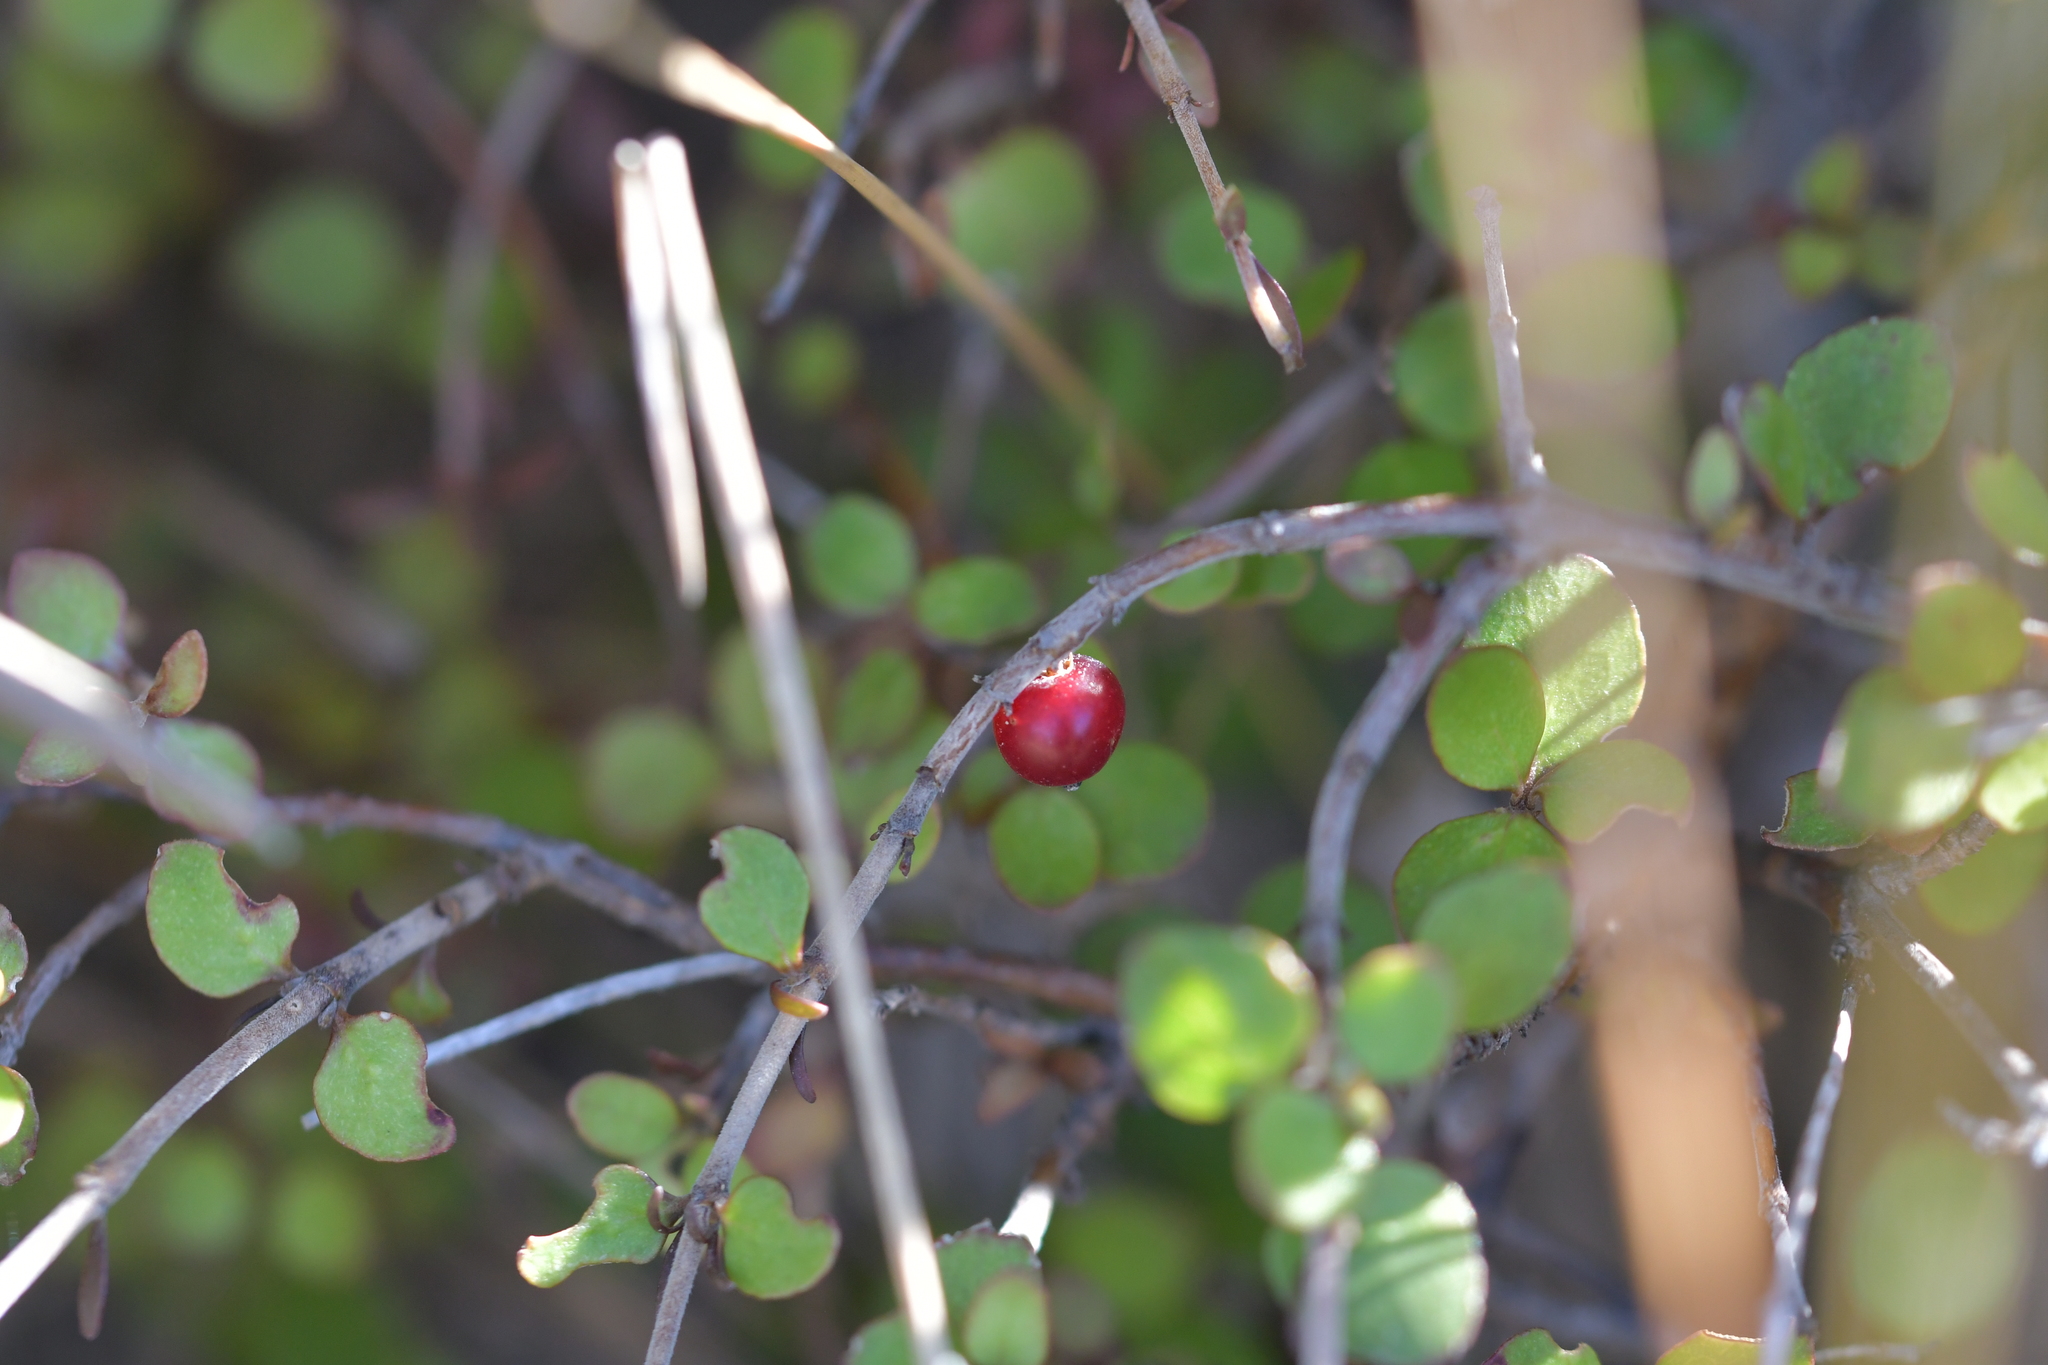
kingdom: Plantae
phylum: Tracheophyta
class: Magnoliopsida
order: Gentianales
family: Rubiaceae
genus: Coprosma
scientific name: Coprosma rhamnoides
